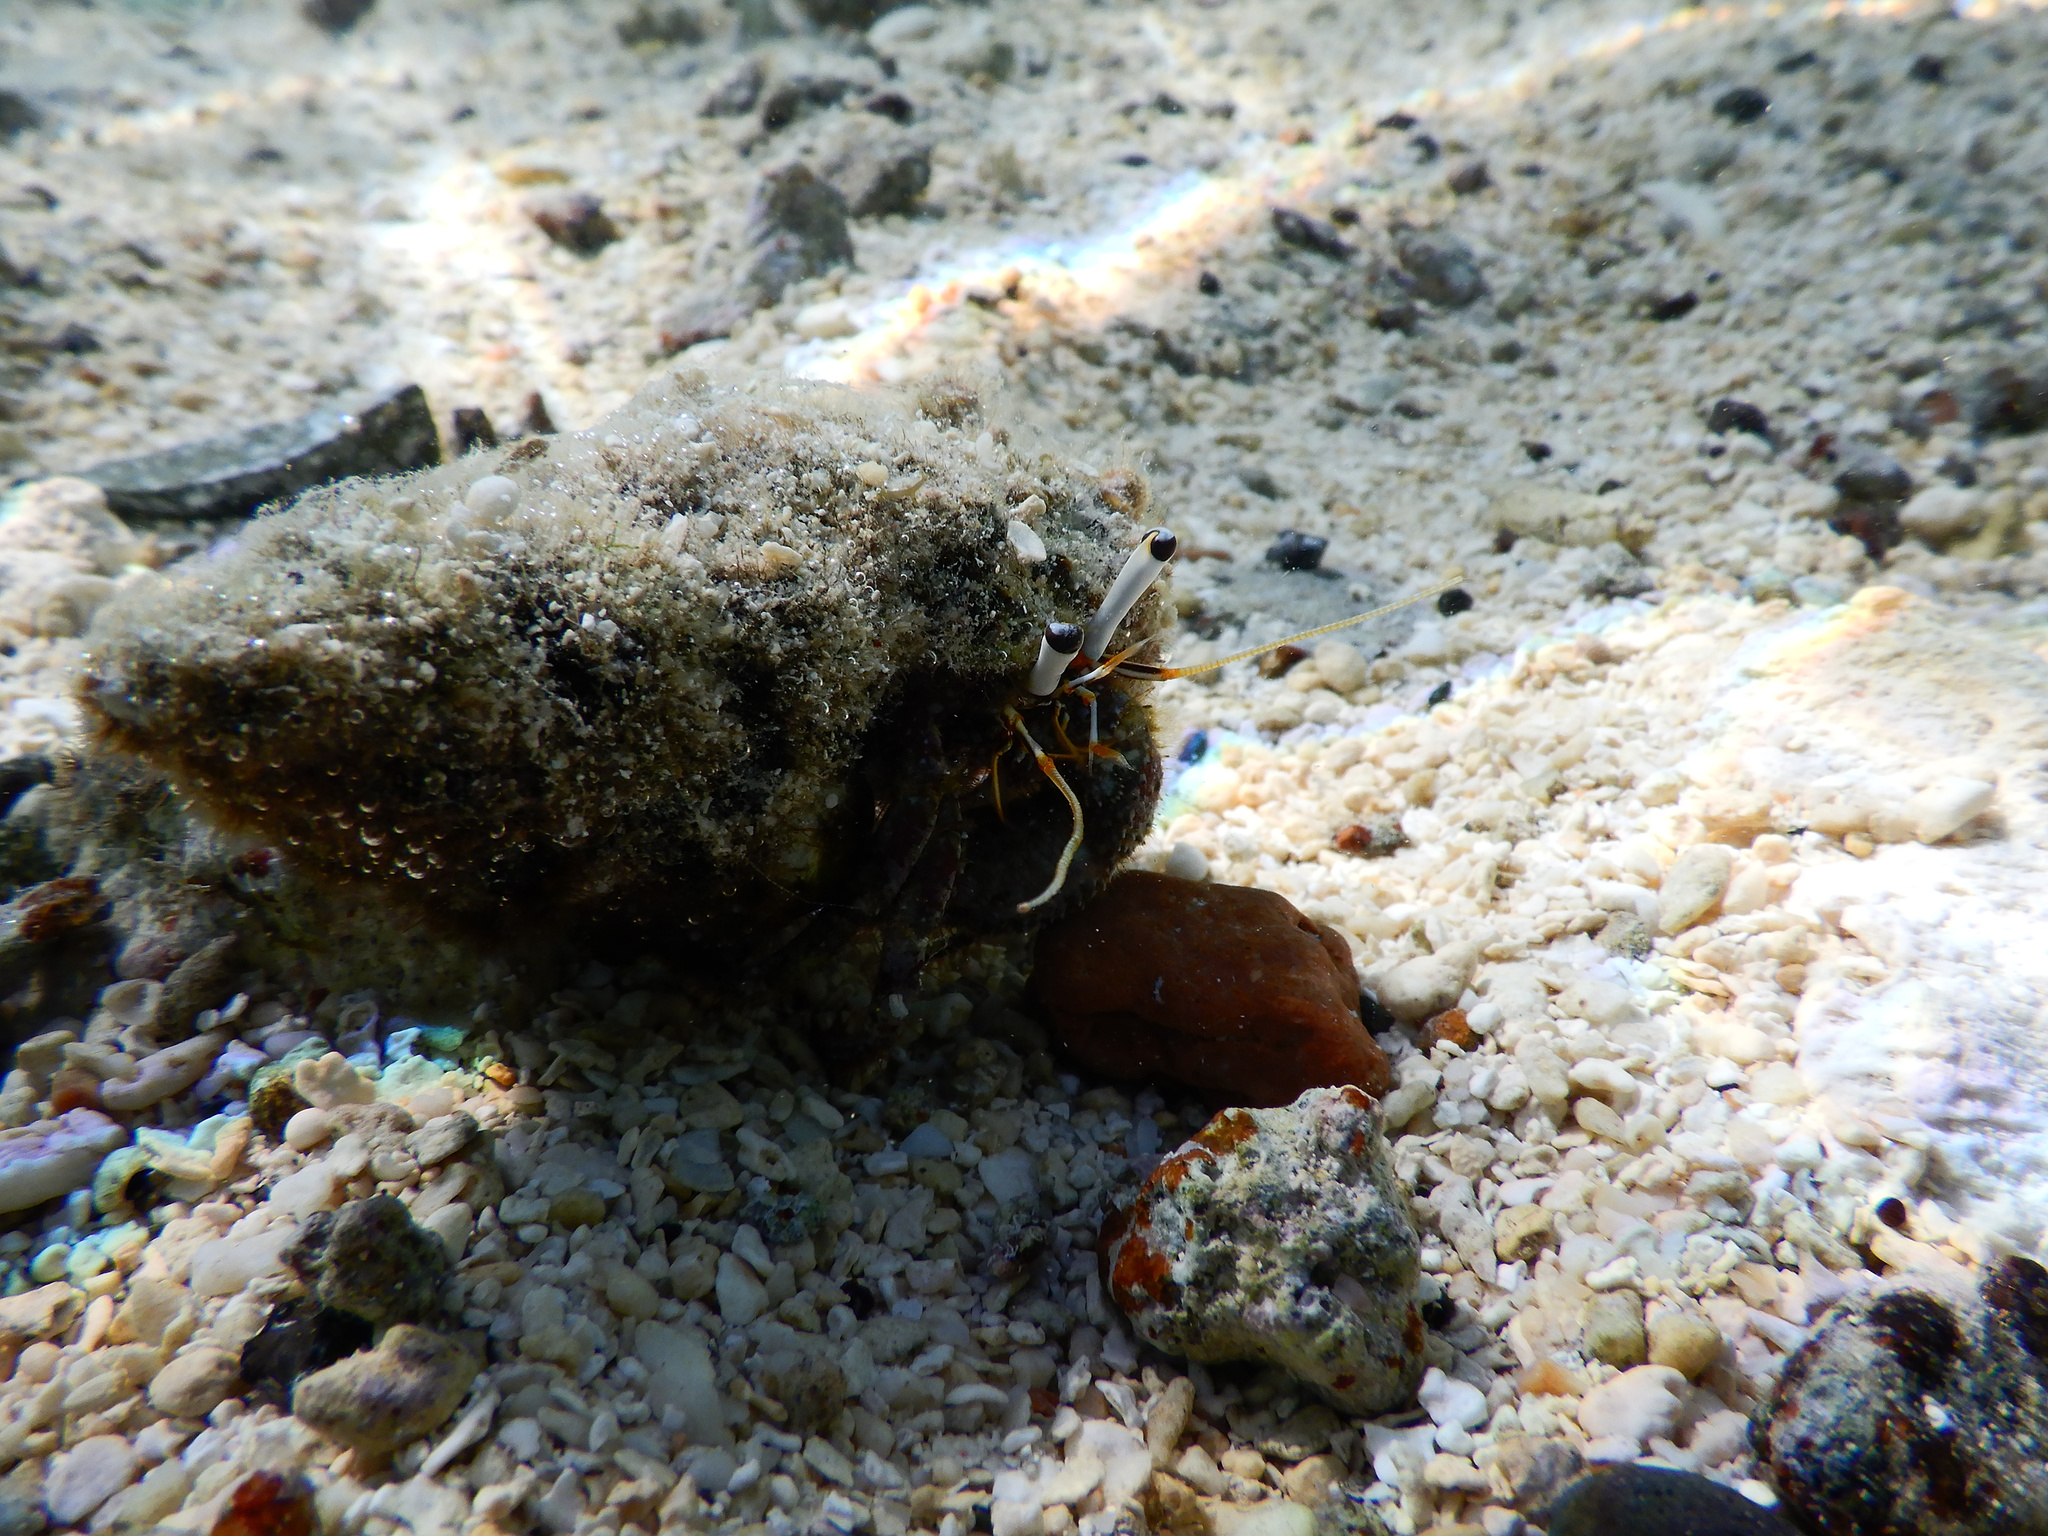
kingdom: Animalia
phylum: Arthropoda
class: Malacostraca
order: Decapoda
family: Diogenidae
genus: Dardanus
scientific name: Dardanus scutellatus
